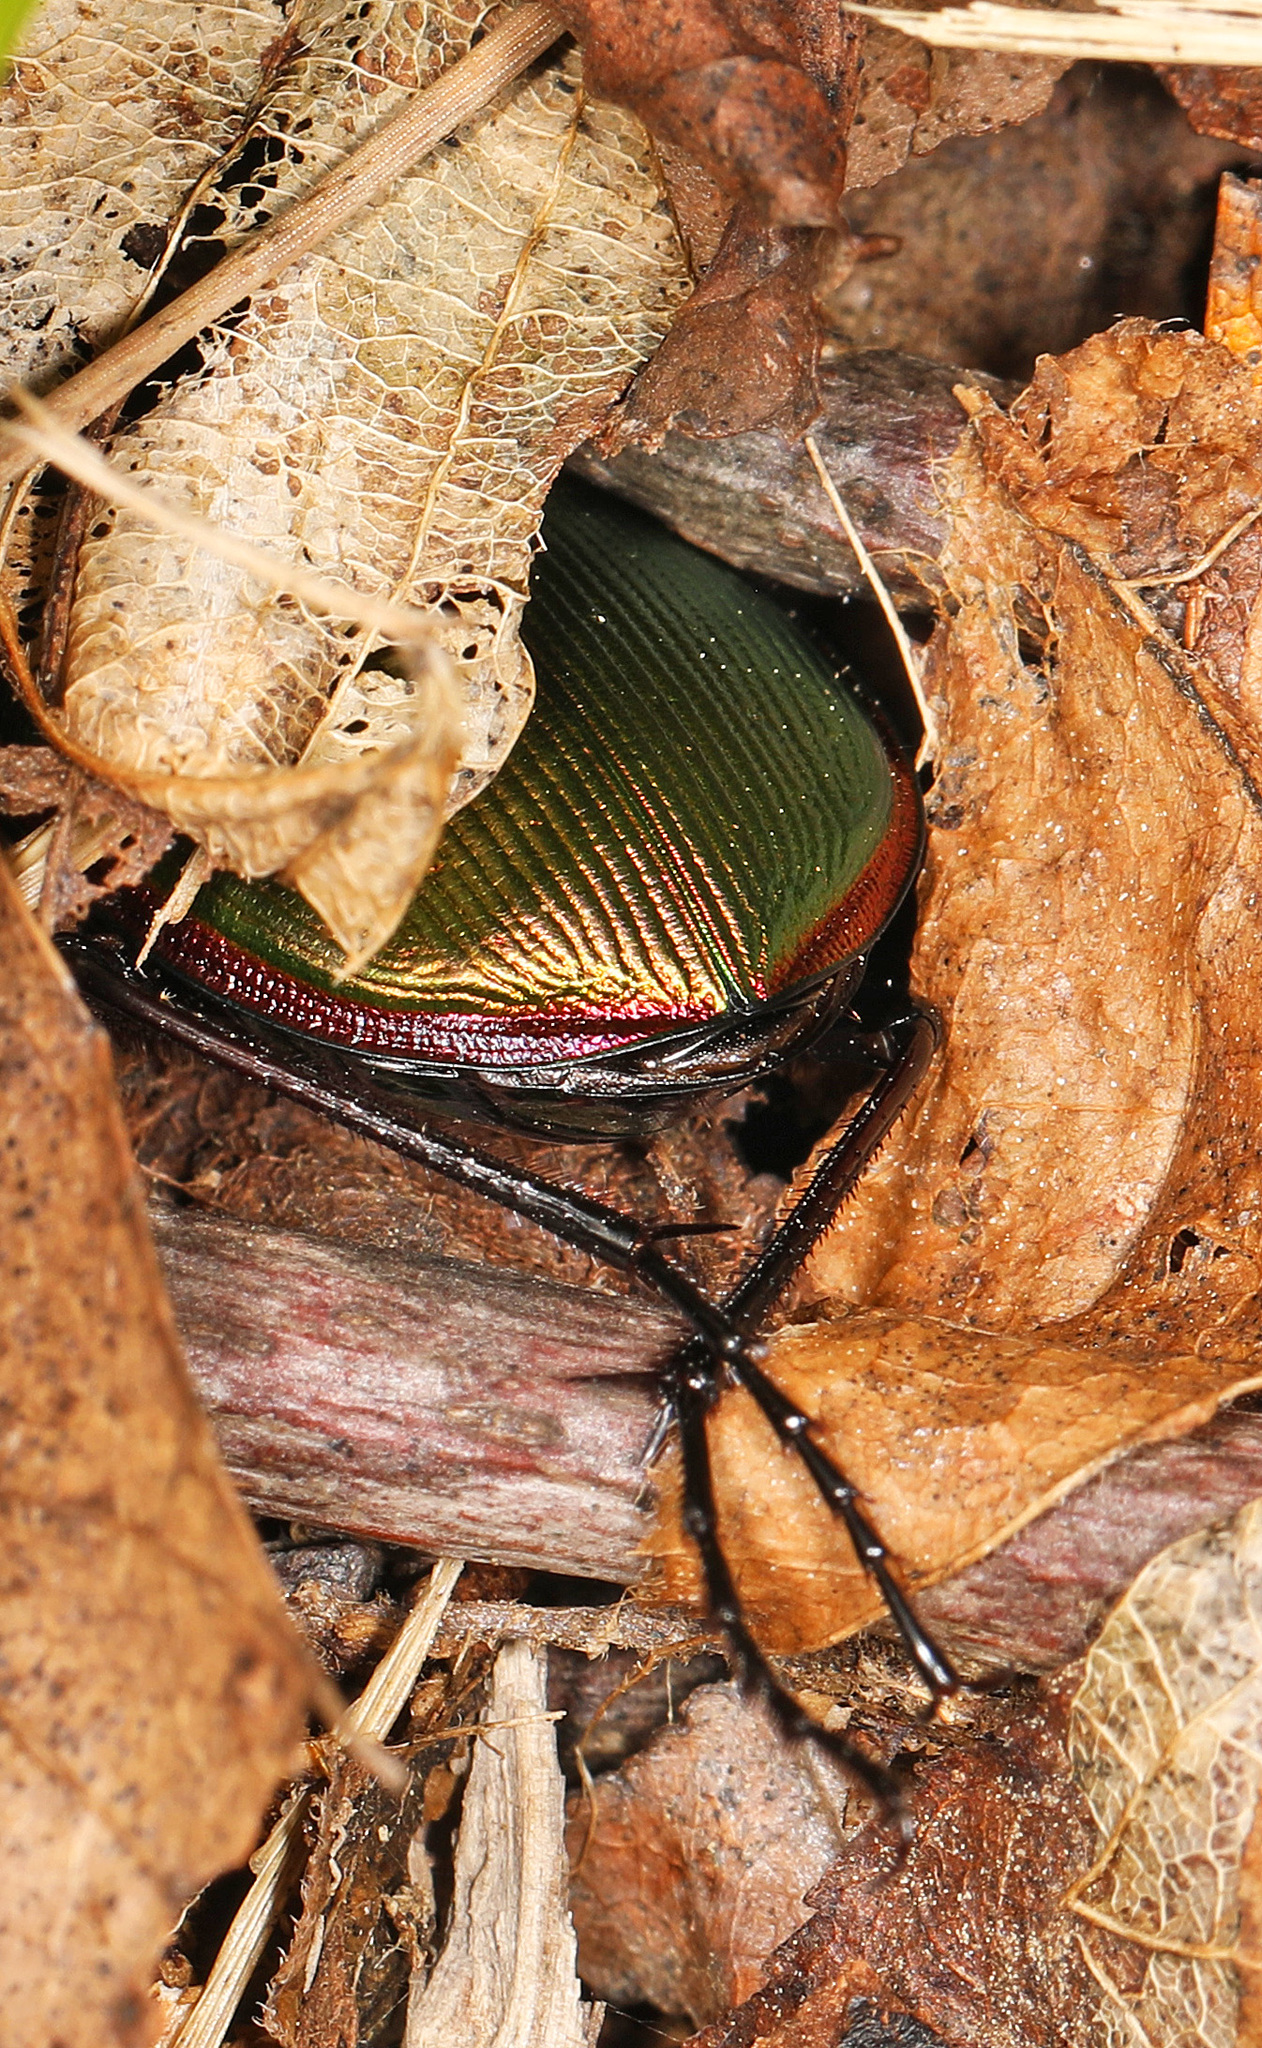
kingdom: Animalia
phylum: Arthropoda
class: Insecta
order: Coleoptera
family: Carabidae
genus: Calosoma
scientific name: Calosoma scrutator
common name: Fiery searcher beetle
